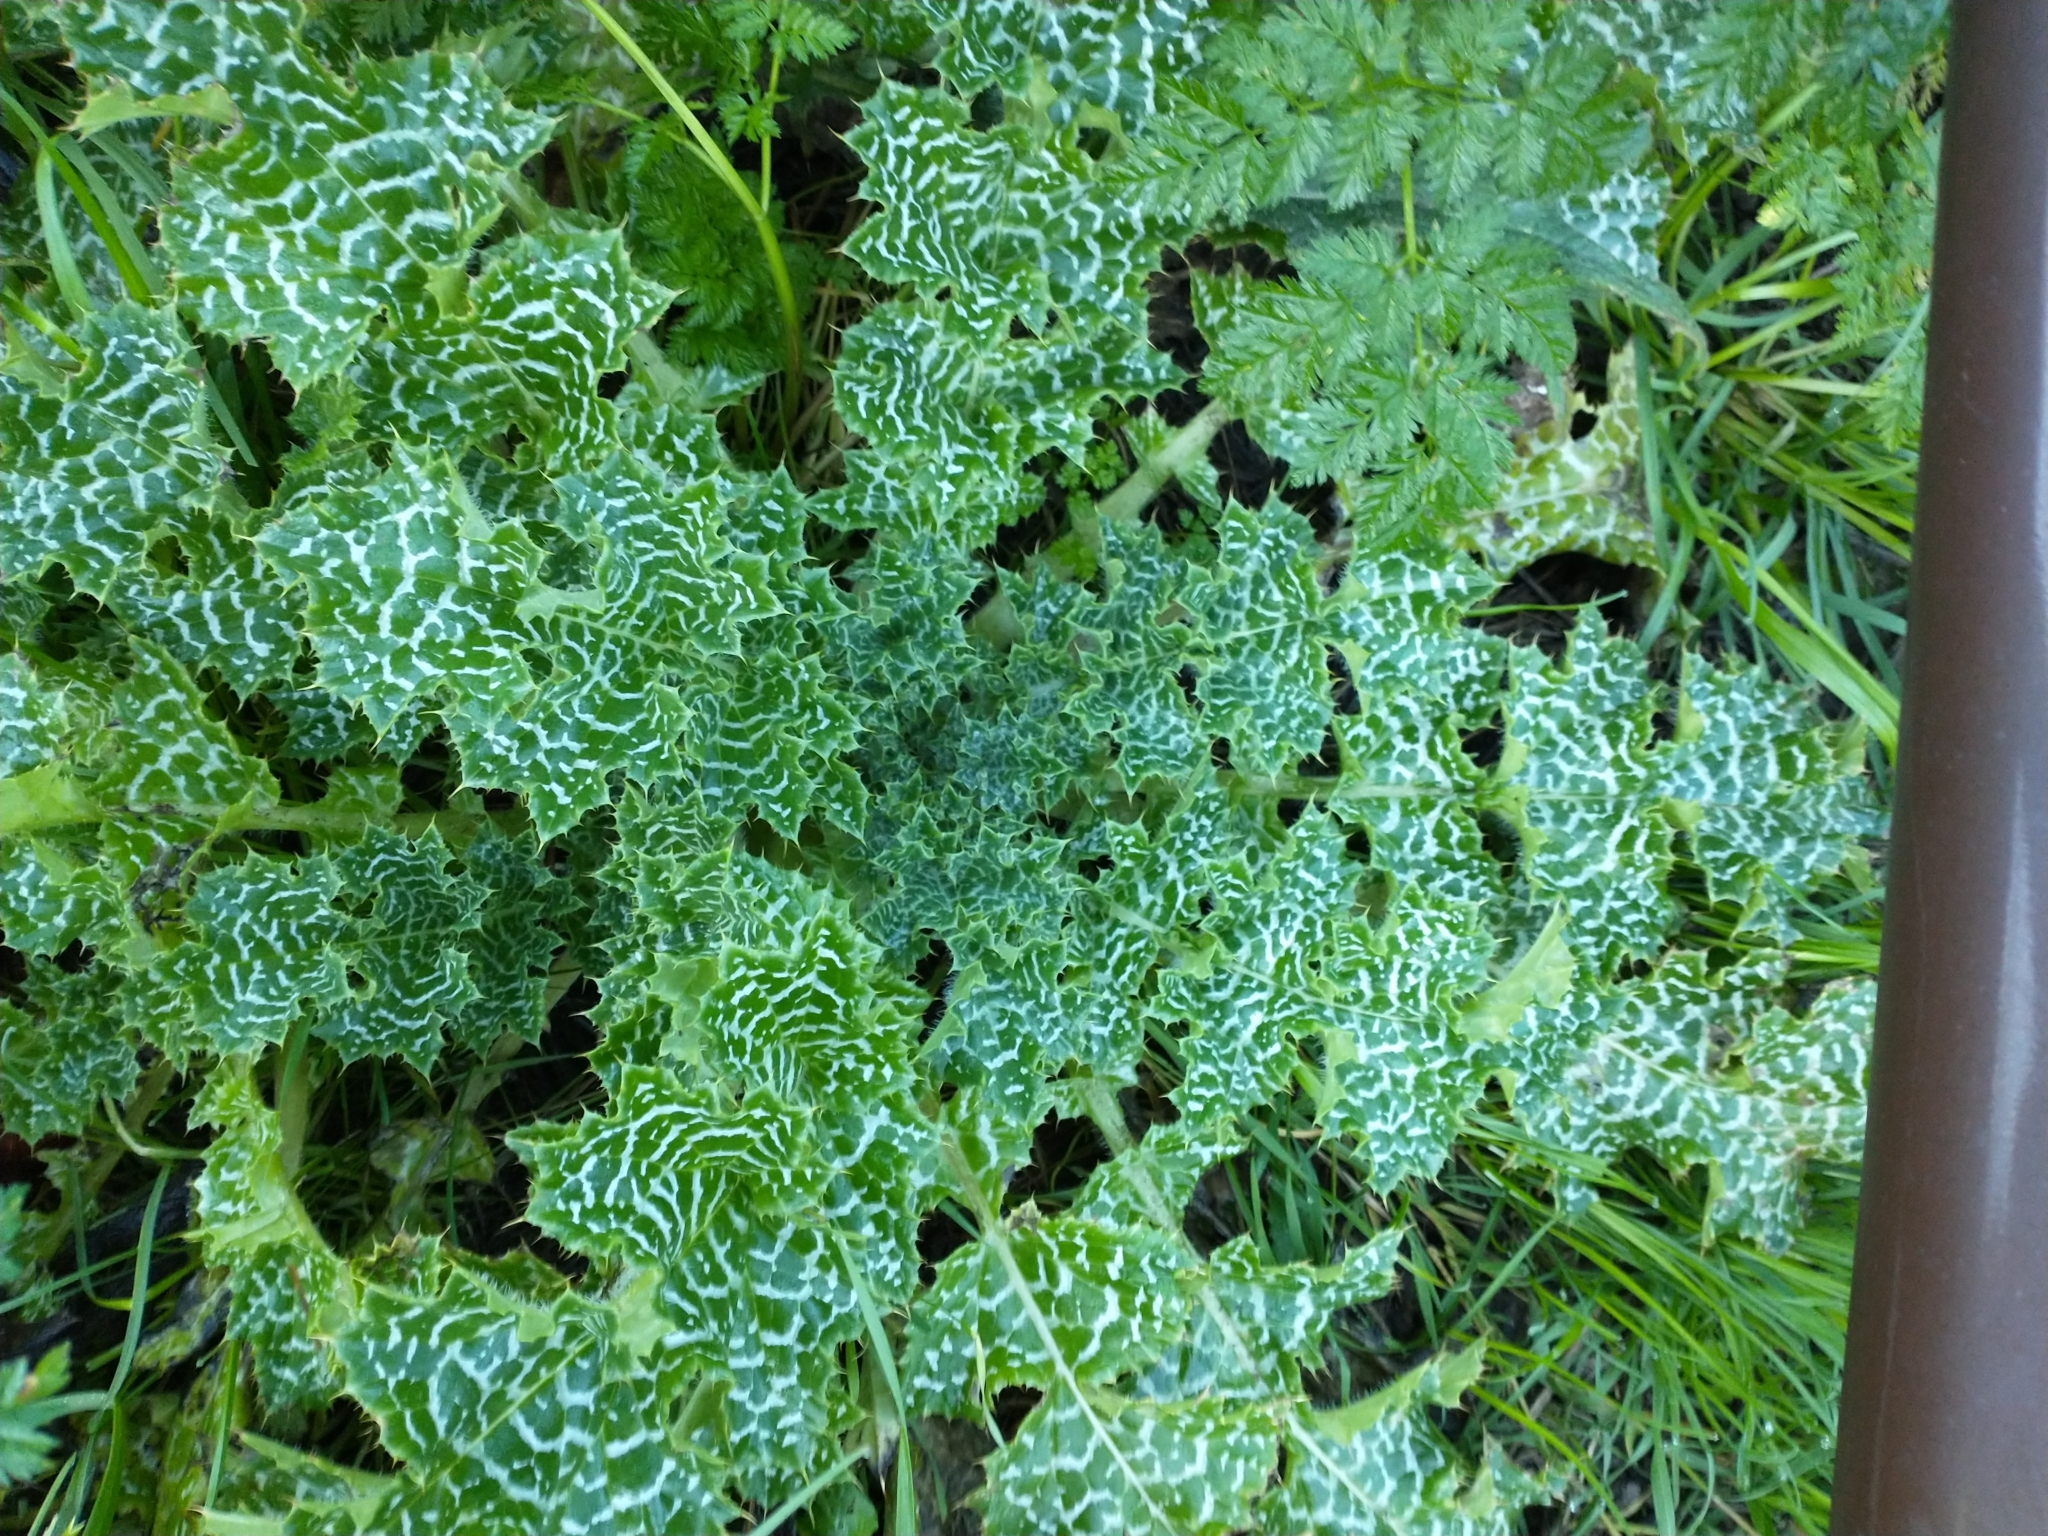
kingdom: Plantae
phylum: Tracheophyta
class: Magnoliopsida
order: Asterales
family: Asteraceae
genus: Silybum
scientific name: Silybum marianum
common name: Milk thistle
